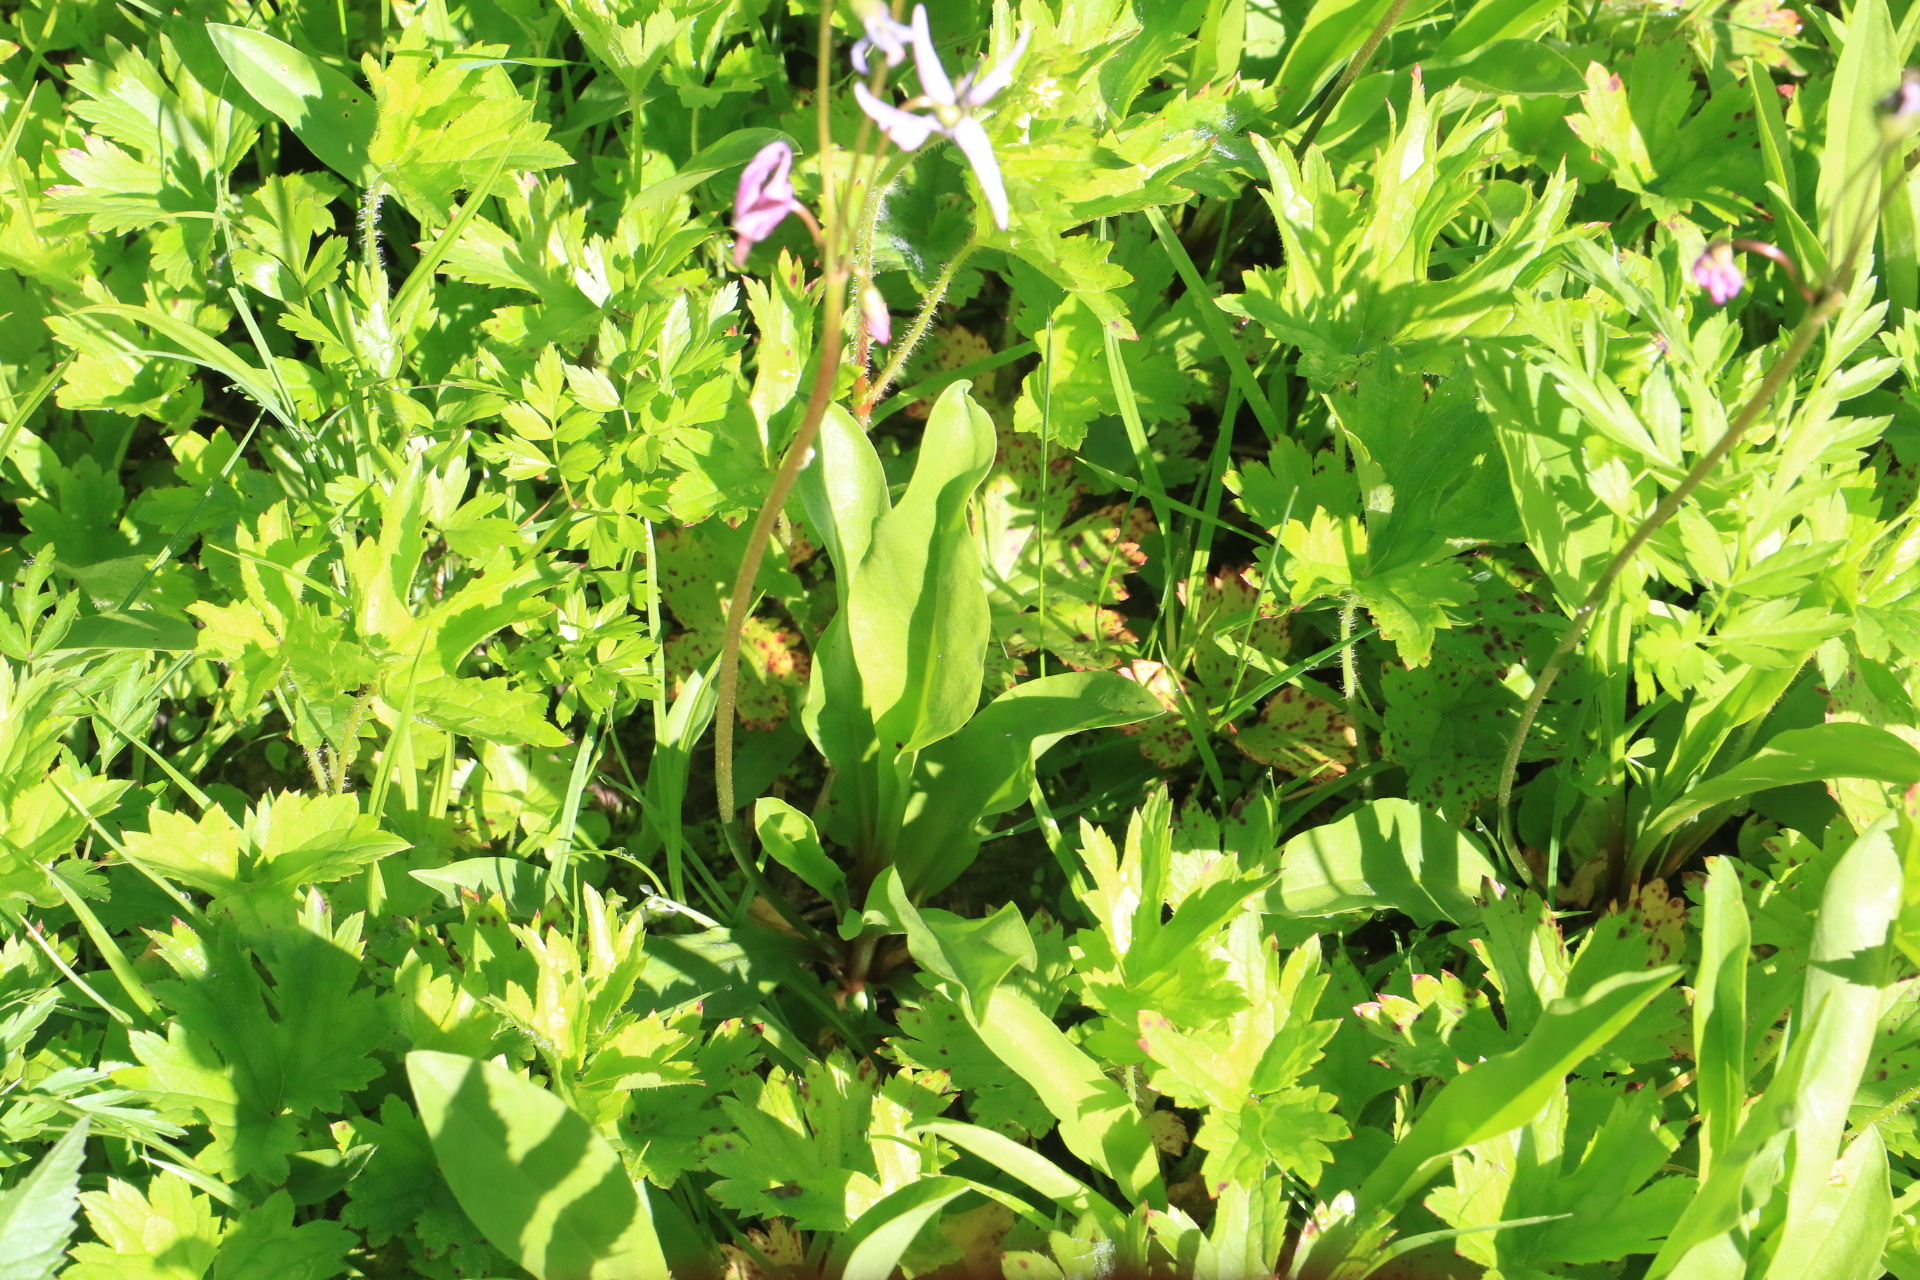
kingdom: Plantae
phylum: Tracheophyta
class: Magnoliopsida
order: Ericales
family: Primulaceae
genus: Dodecatheon
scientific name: Dodecatheon jeffreyanum
